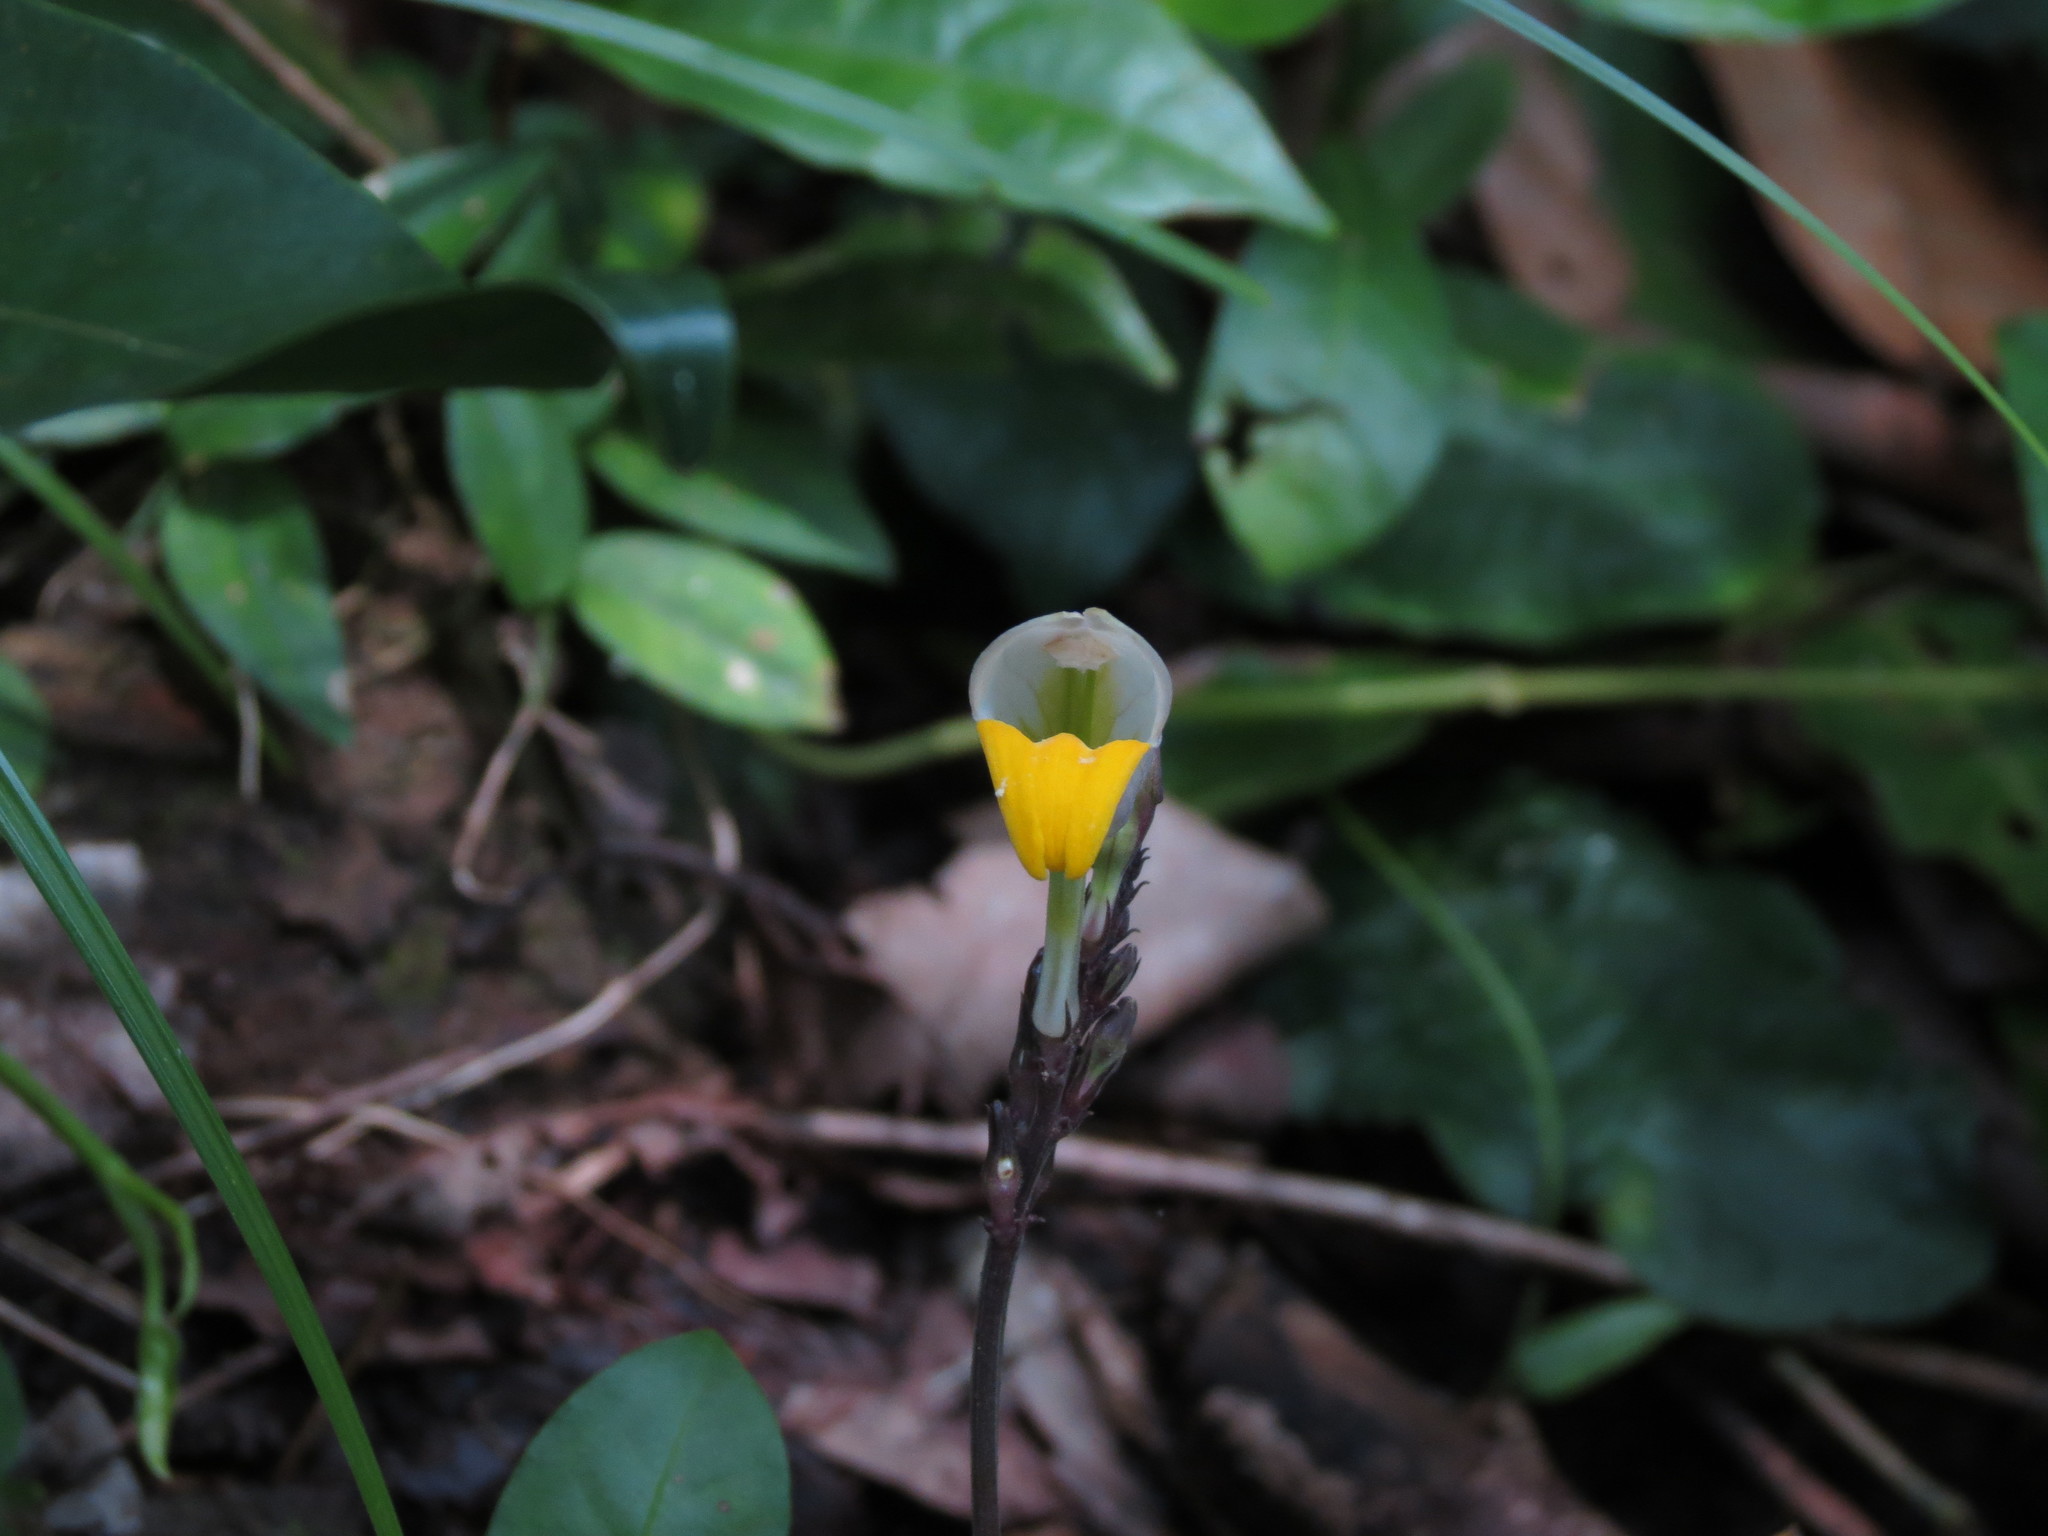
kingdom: Plantae
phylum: Tracheophyta
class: Magnoliopsida
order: Lamiales
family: Acanthaceae
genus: Gymnostachyum
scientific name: Gymnostachyum febrifugum
